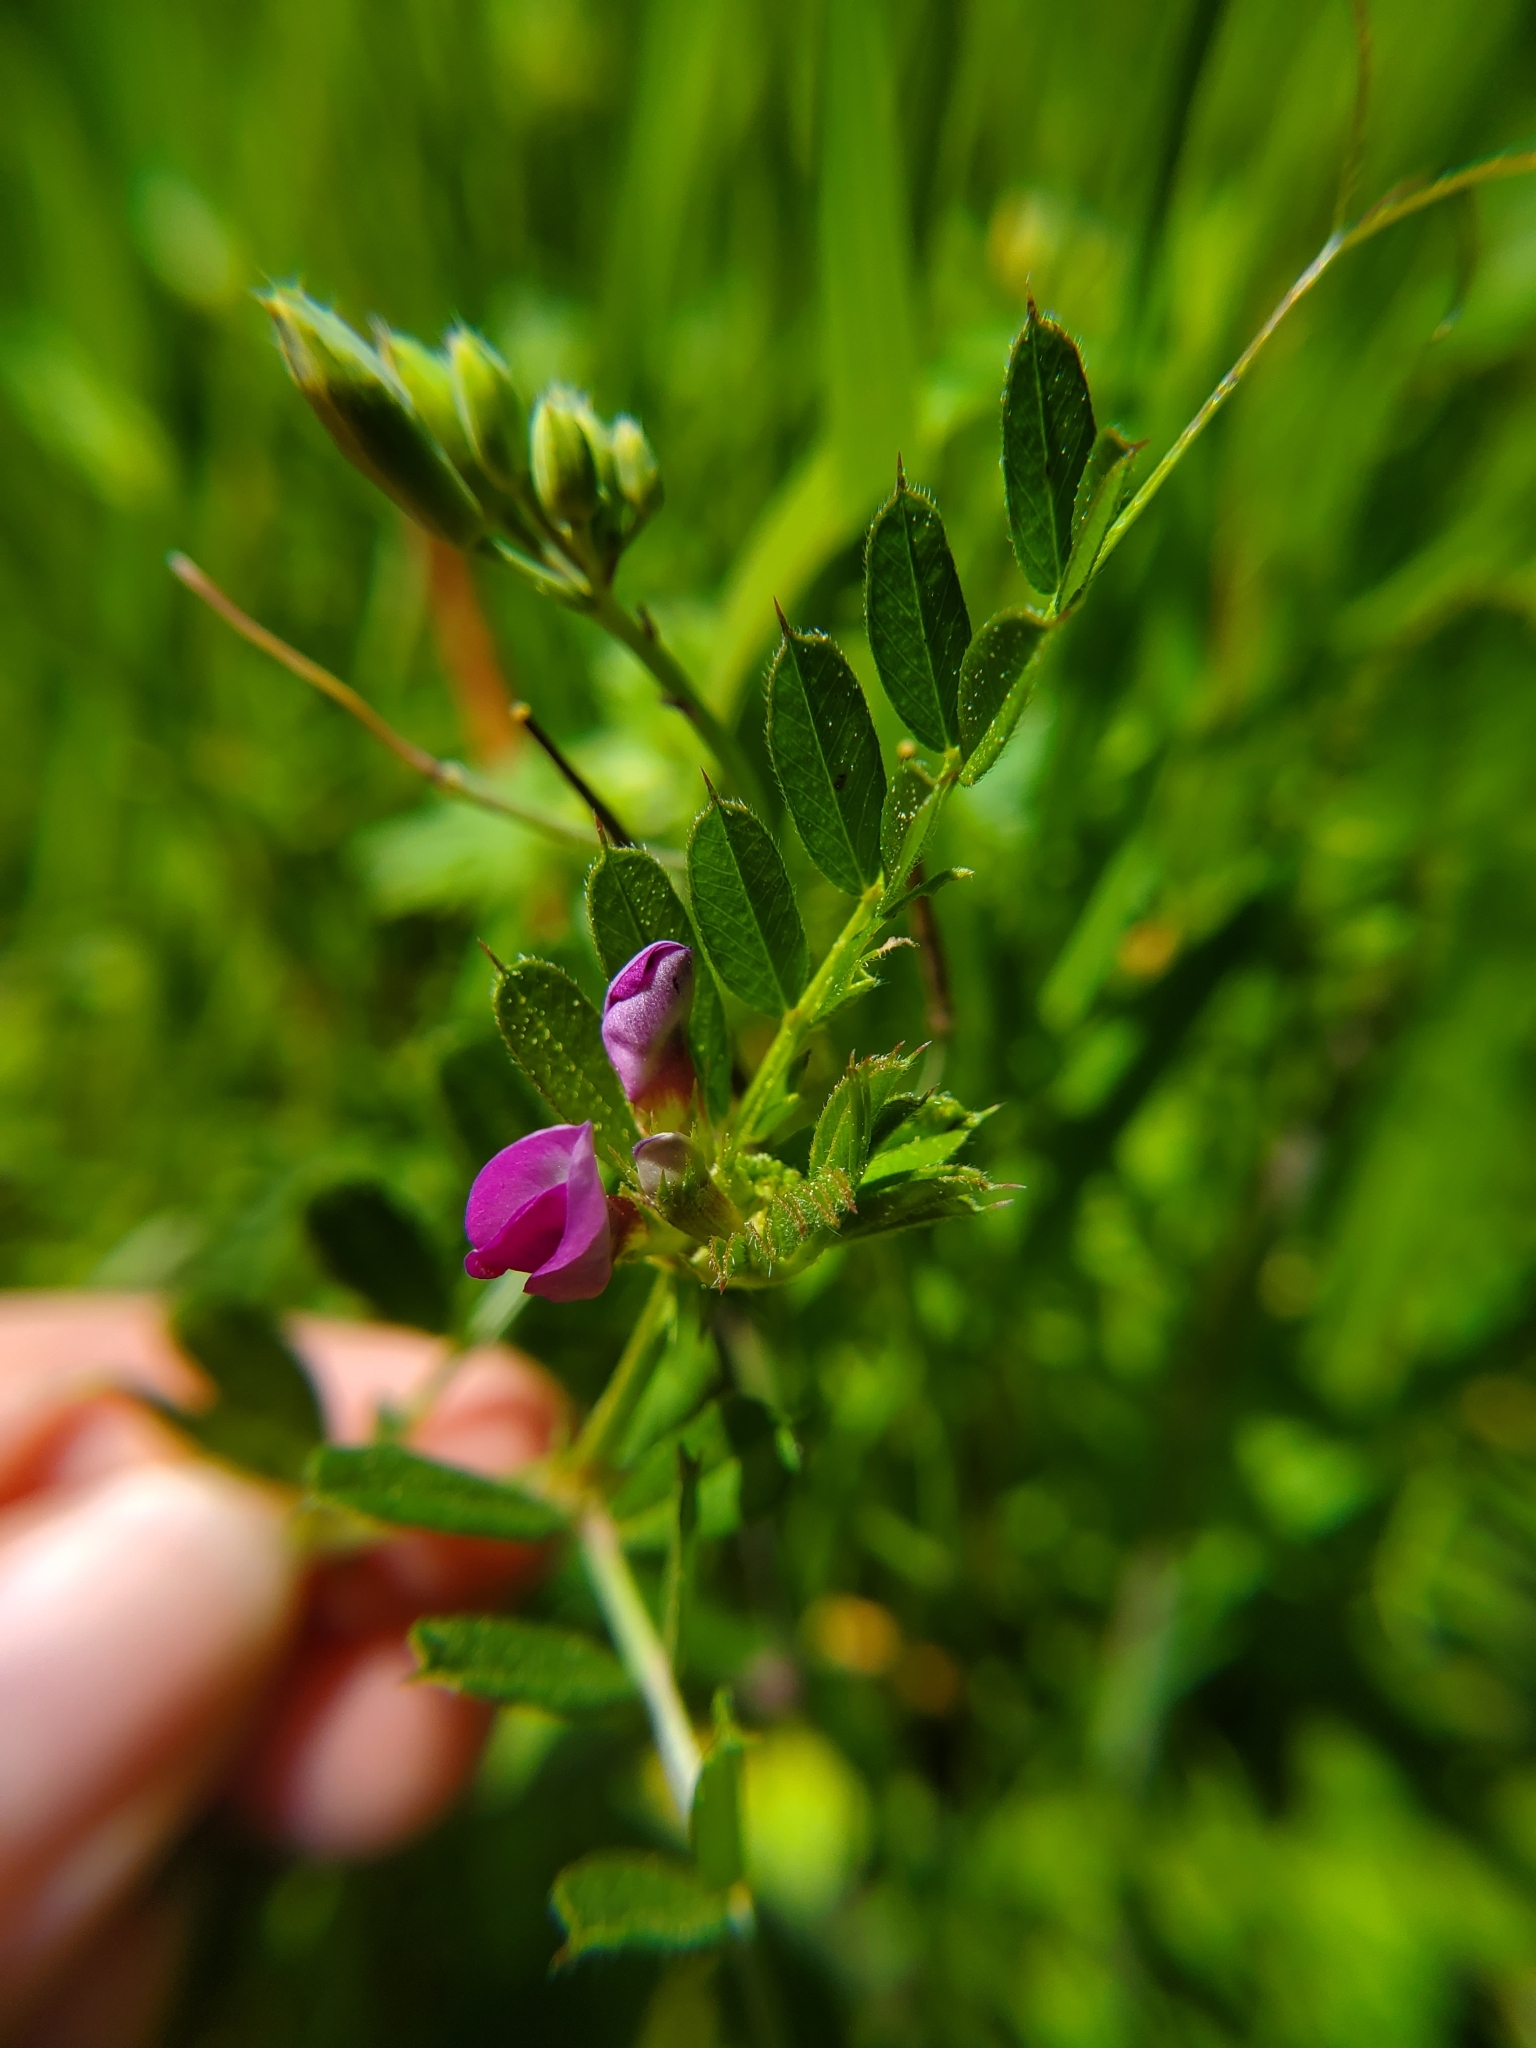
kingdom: Plantae
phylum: Tracheophyta
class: Magnoliopsida
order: Fabales
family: Fabaceae
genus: Vicia
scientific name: Vicia sativa
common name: Garden vetch
